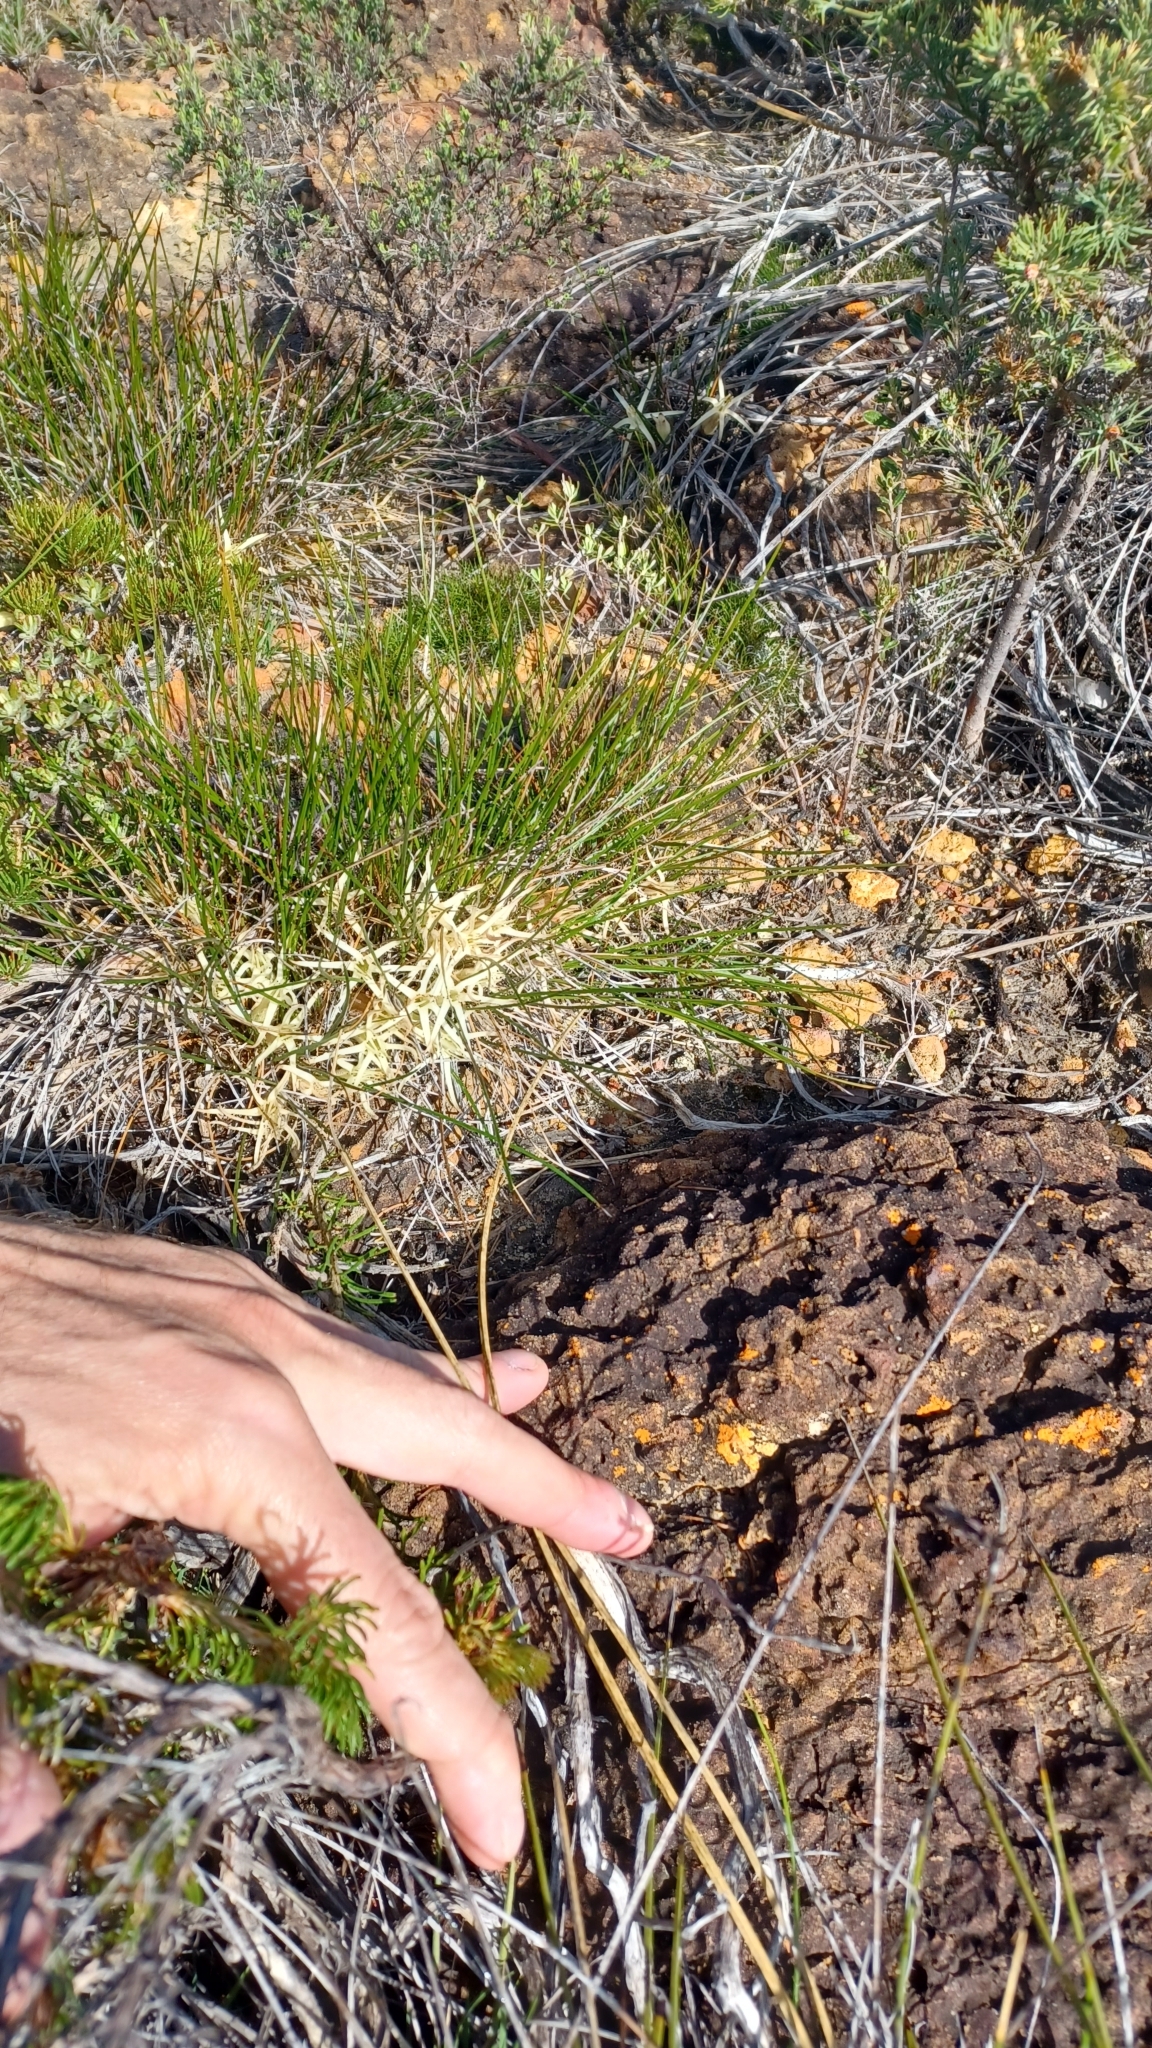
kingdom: Plantae
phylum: Tracheophyta
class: Liliopsida
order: Commelinales
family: Haemodoraceae
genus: Conostylis
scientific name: Conostylis androstemma
